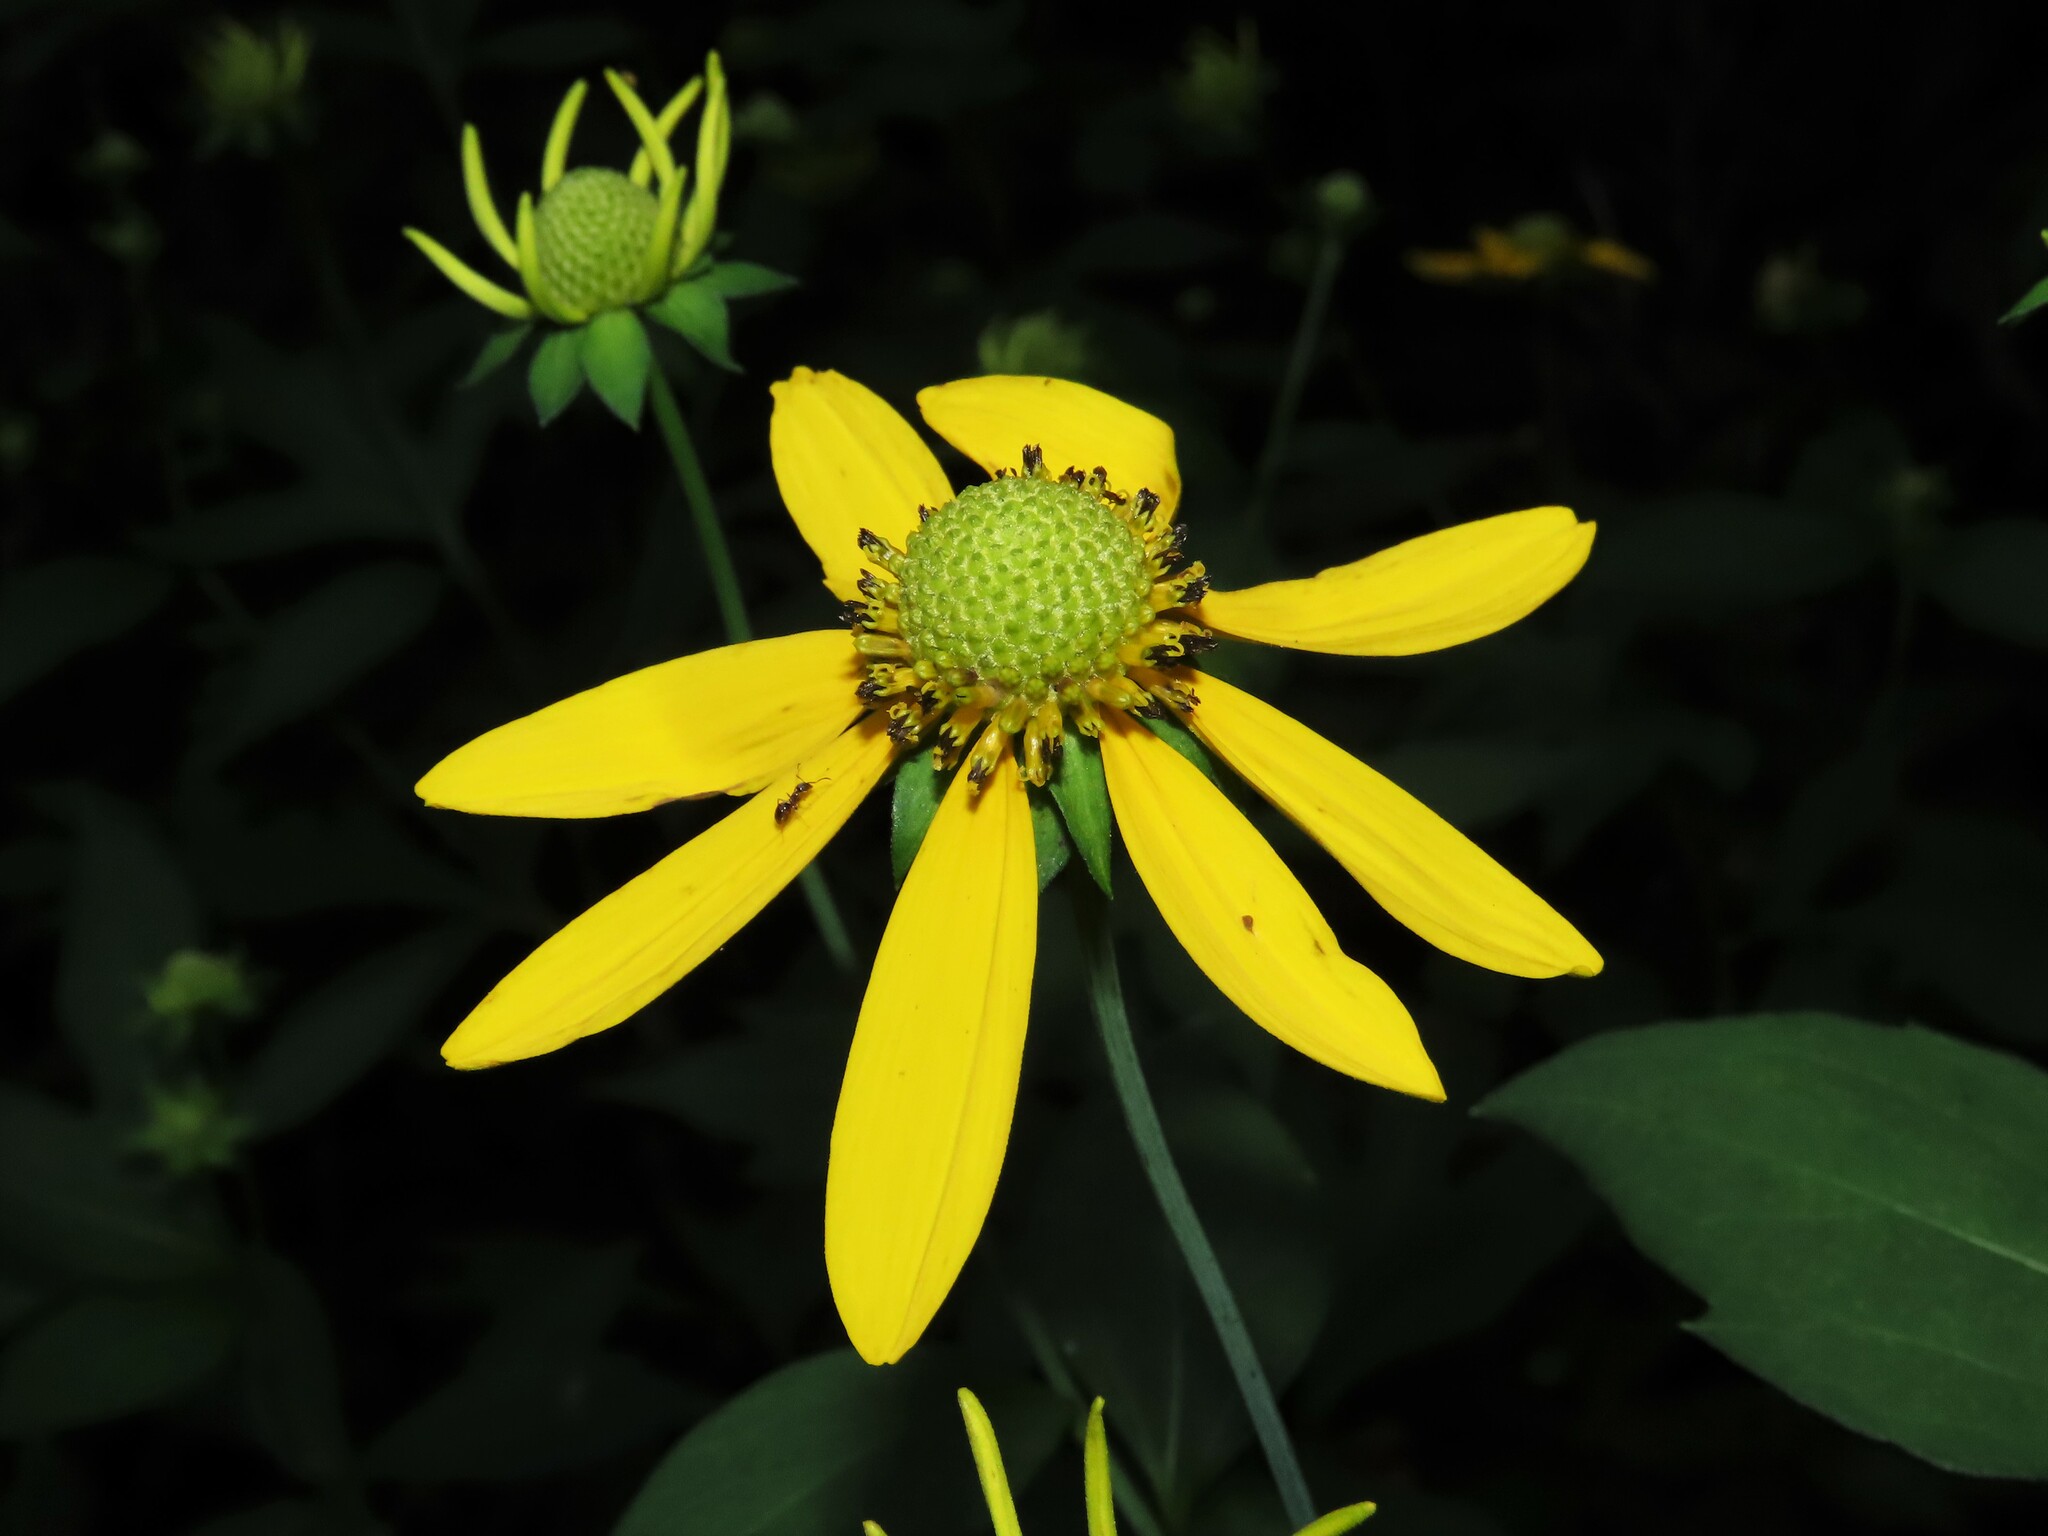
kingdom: Plantae
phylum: Tracheophyta
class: Magnoliopsida
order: Asterales
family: Asteraceae
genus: Rudbeckia
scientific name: Rudbeckia laciniata
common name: Coneflower
